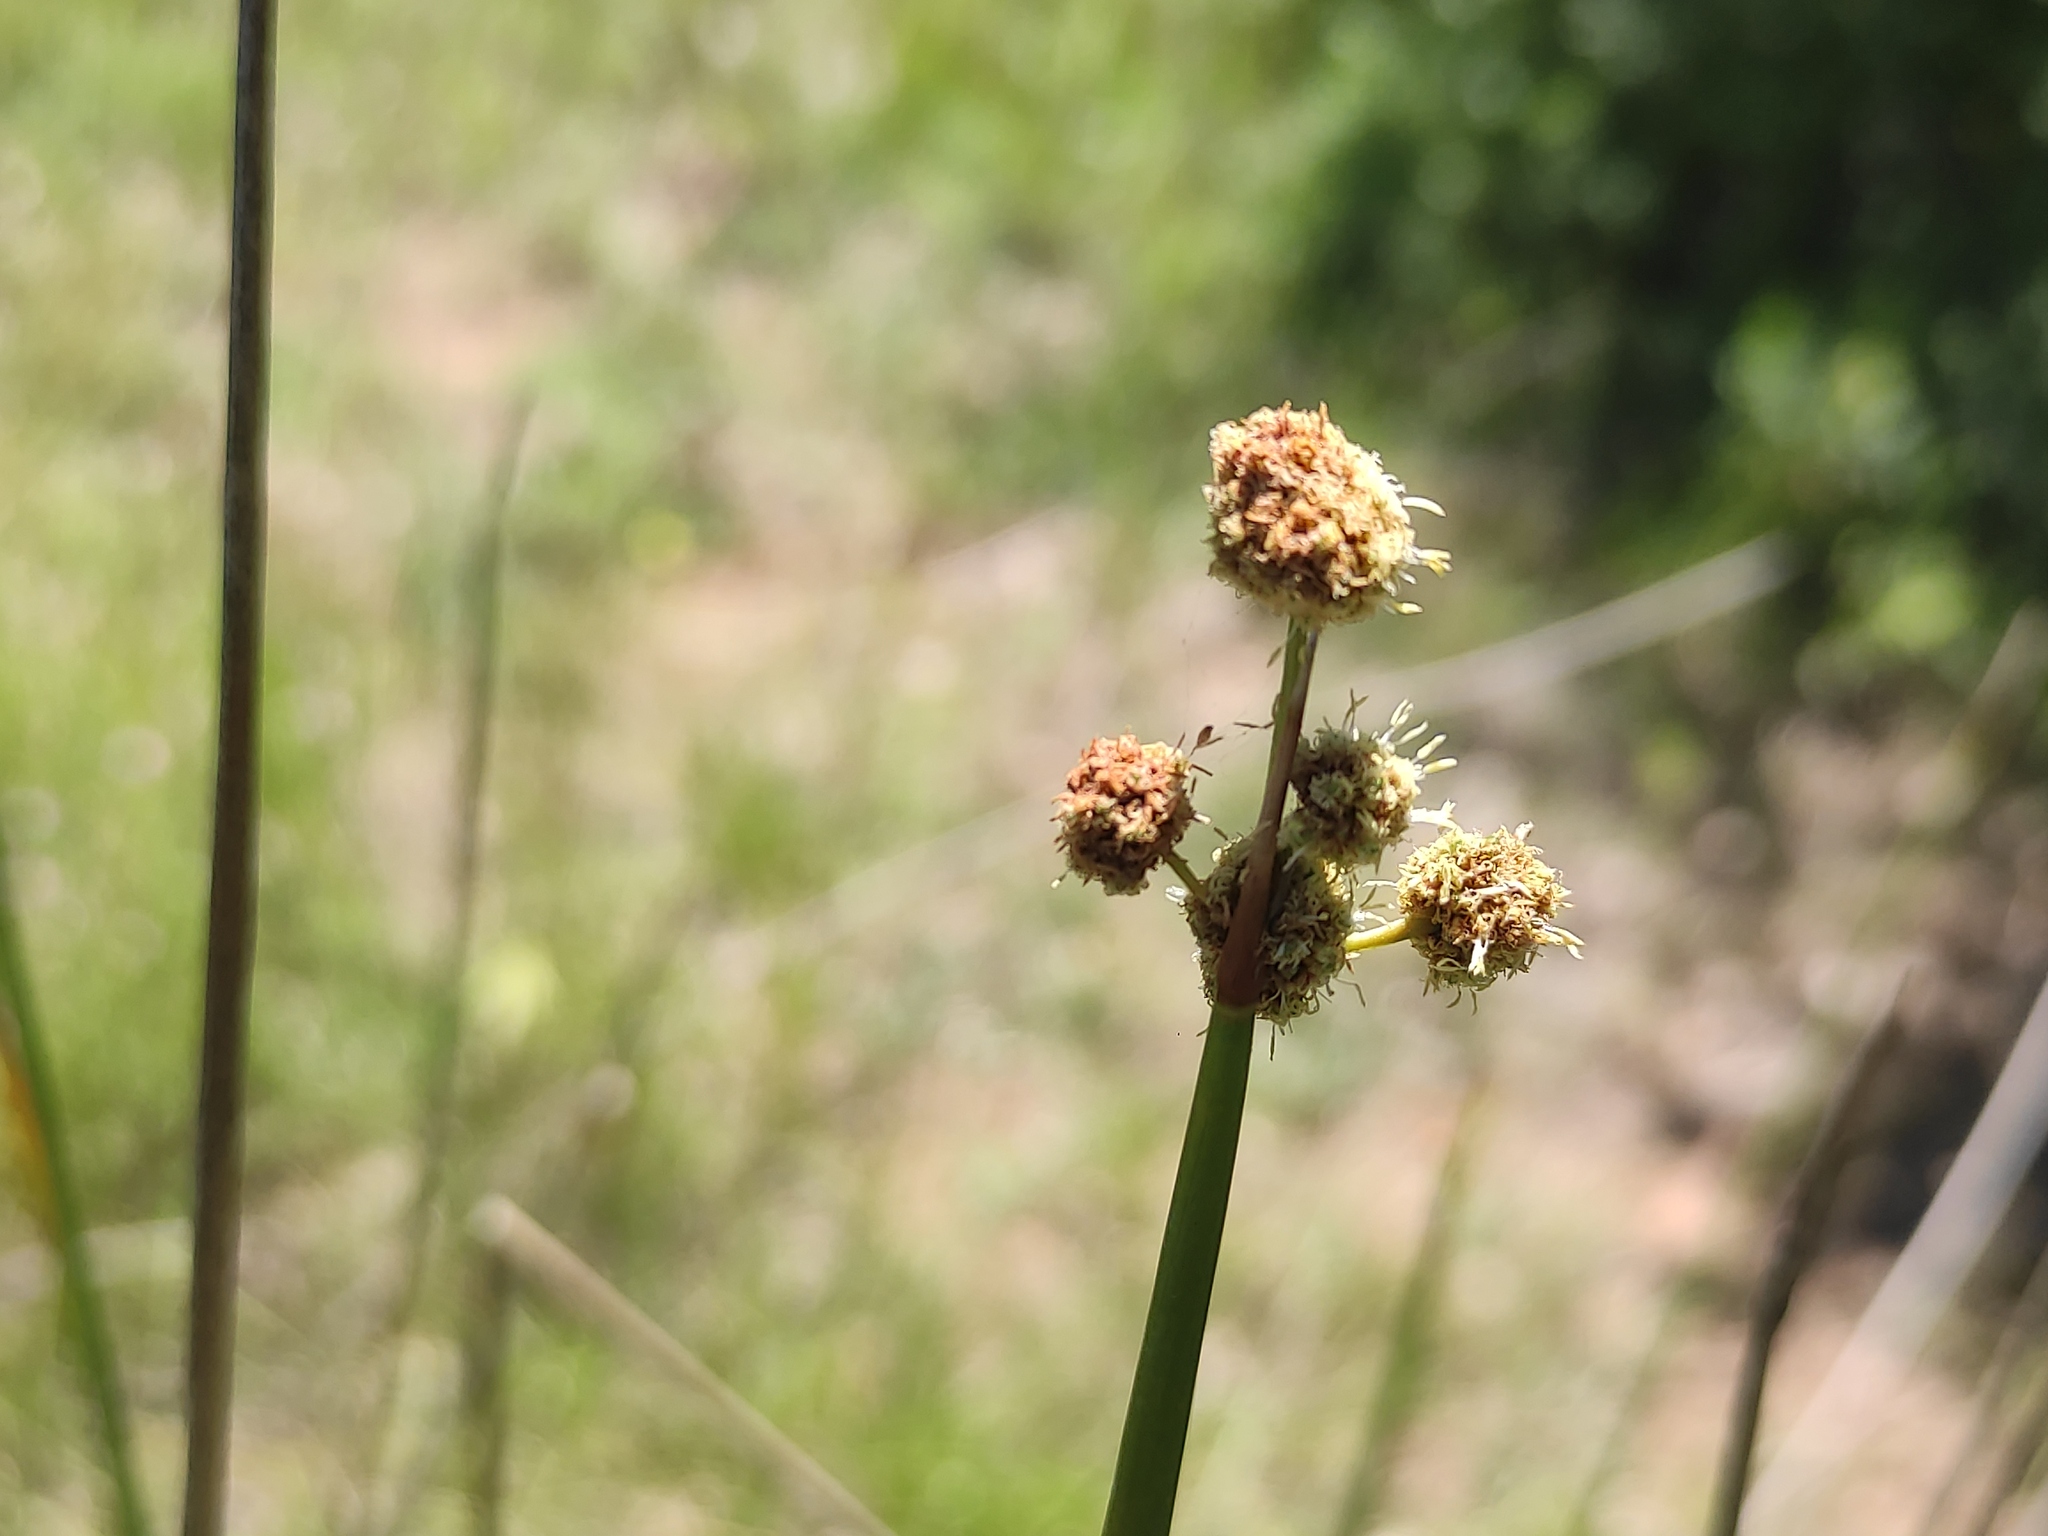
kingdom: Plantae
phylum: Tracheophyta
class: Liliopsida
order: Poales
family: Cyperaceae
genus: Scirpoides
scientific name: Scirpoides holoschoenus
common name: Round-headed club-rush
